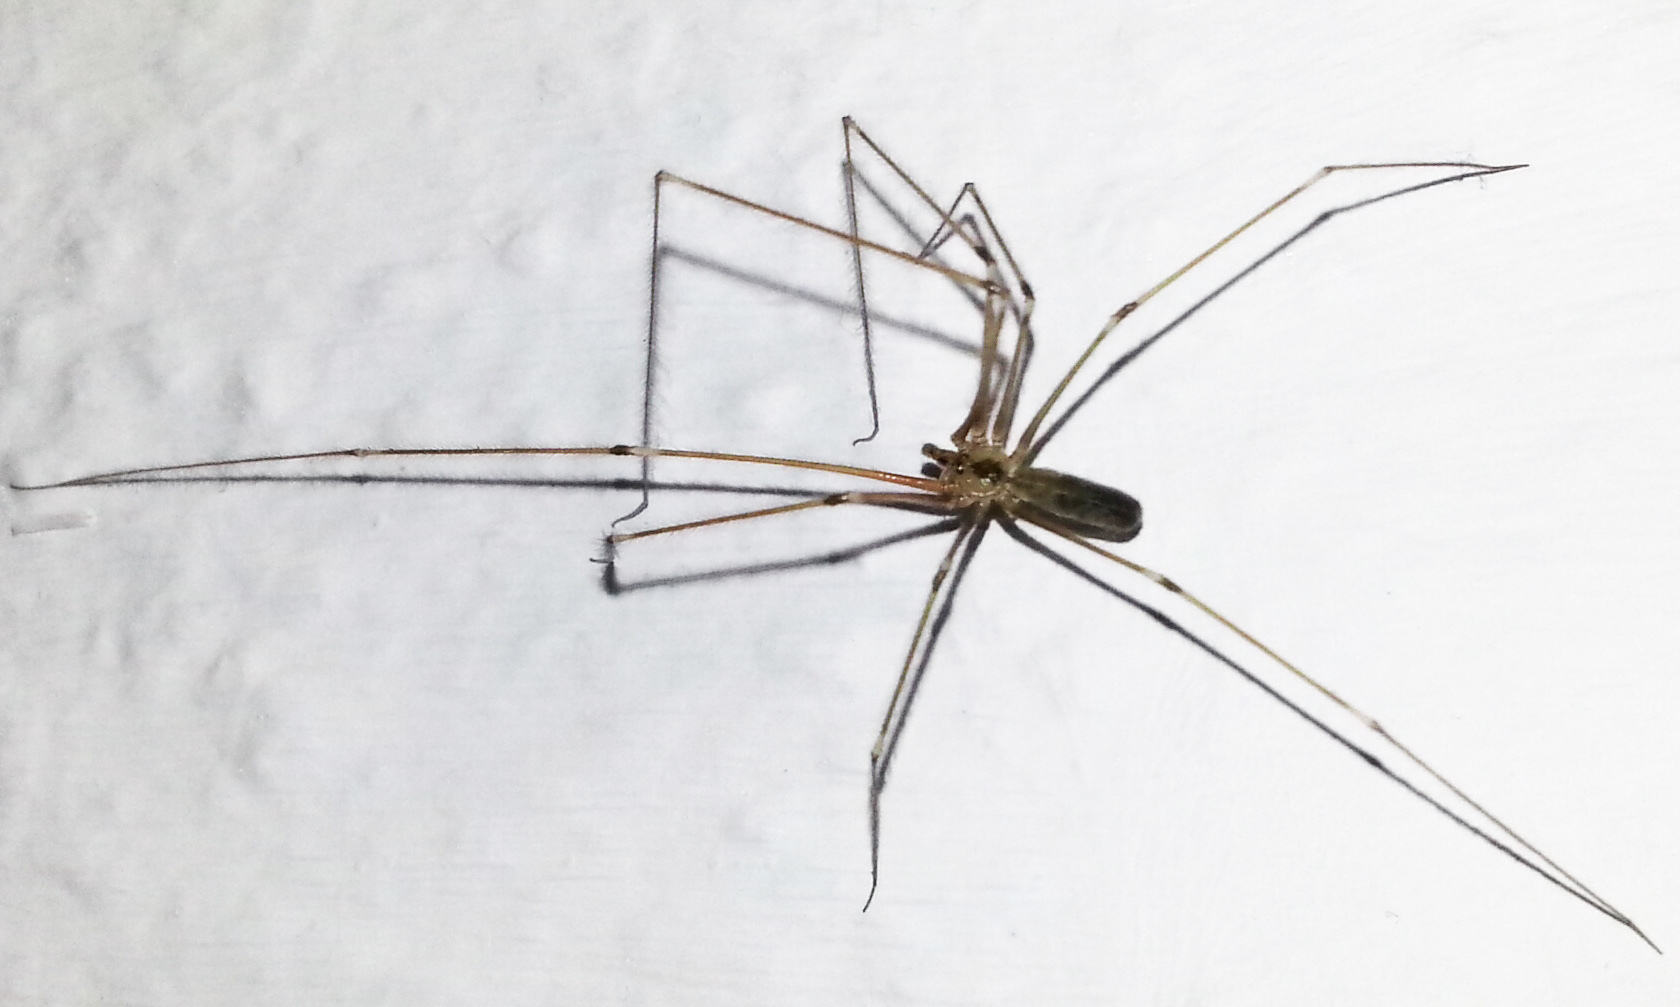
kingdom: Animalia
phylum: Arthropoda
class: Arachnida
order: Araneae
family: Pholcidae
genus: Pholcus
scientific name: Pholcus phalangioides
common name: Longbodied cellar spider
